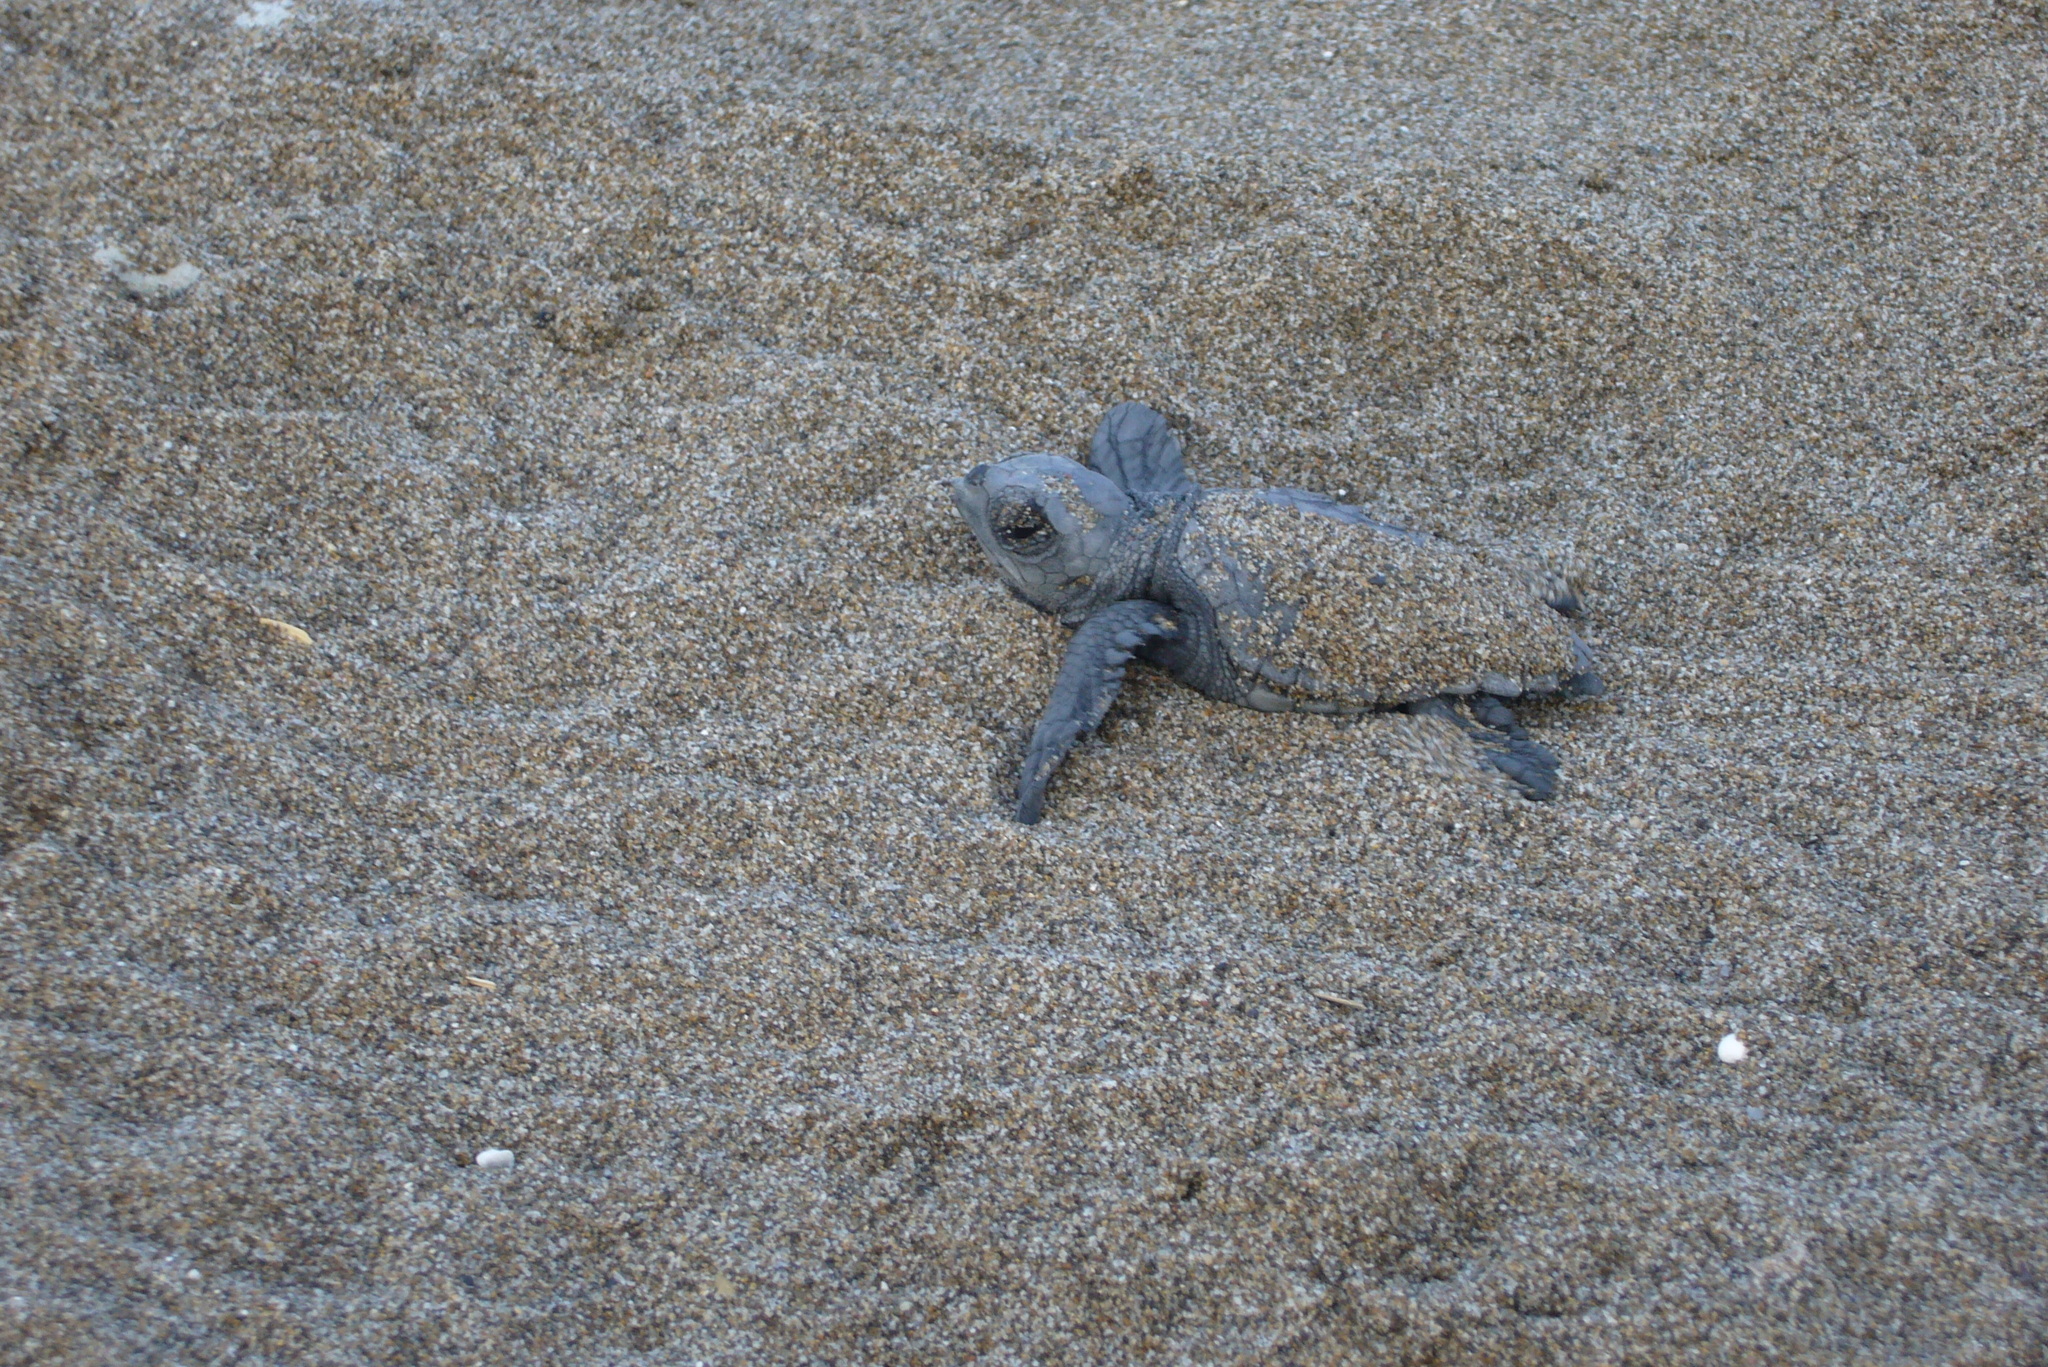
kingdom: Animalia
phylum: Chordata
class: Testudines
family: Cheloniidae
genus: Caretta
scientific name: Caretta caretta
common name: Loggerhead sea turtle
